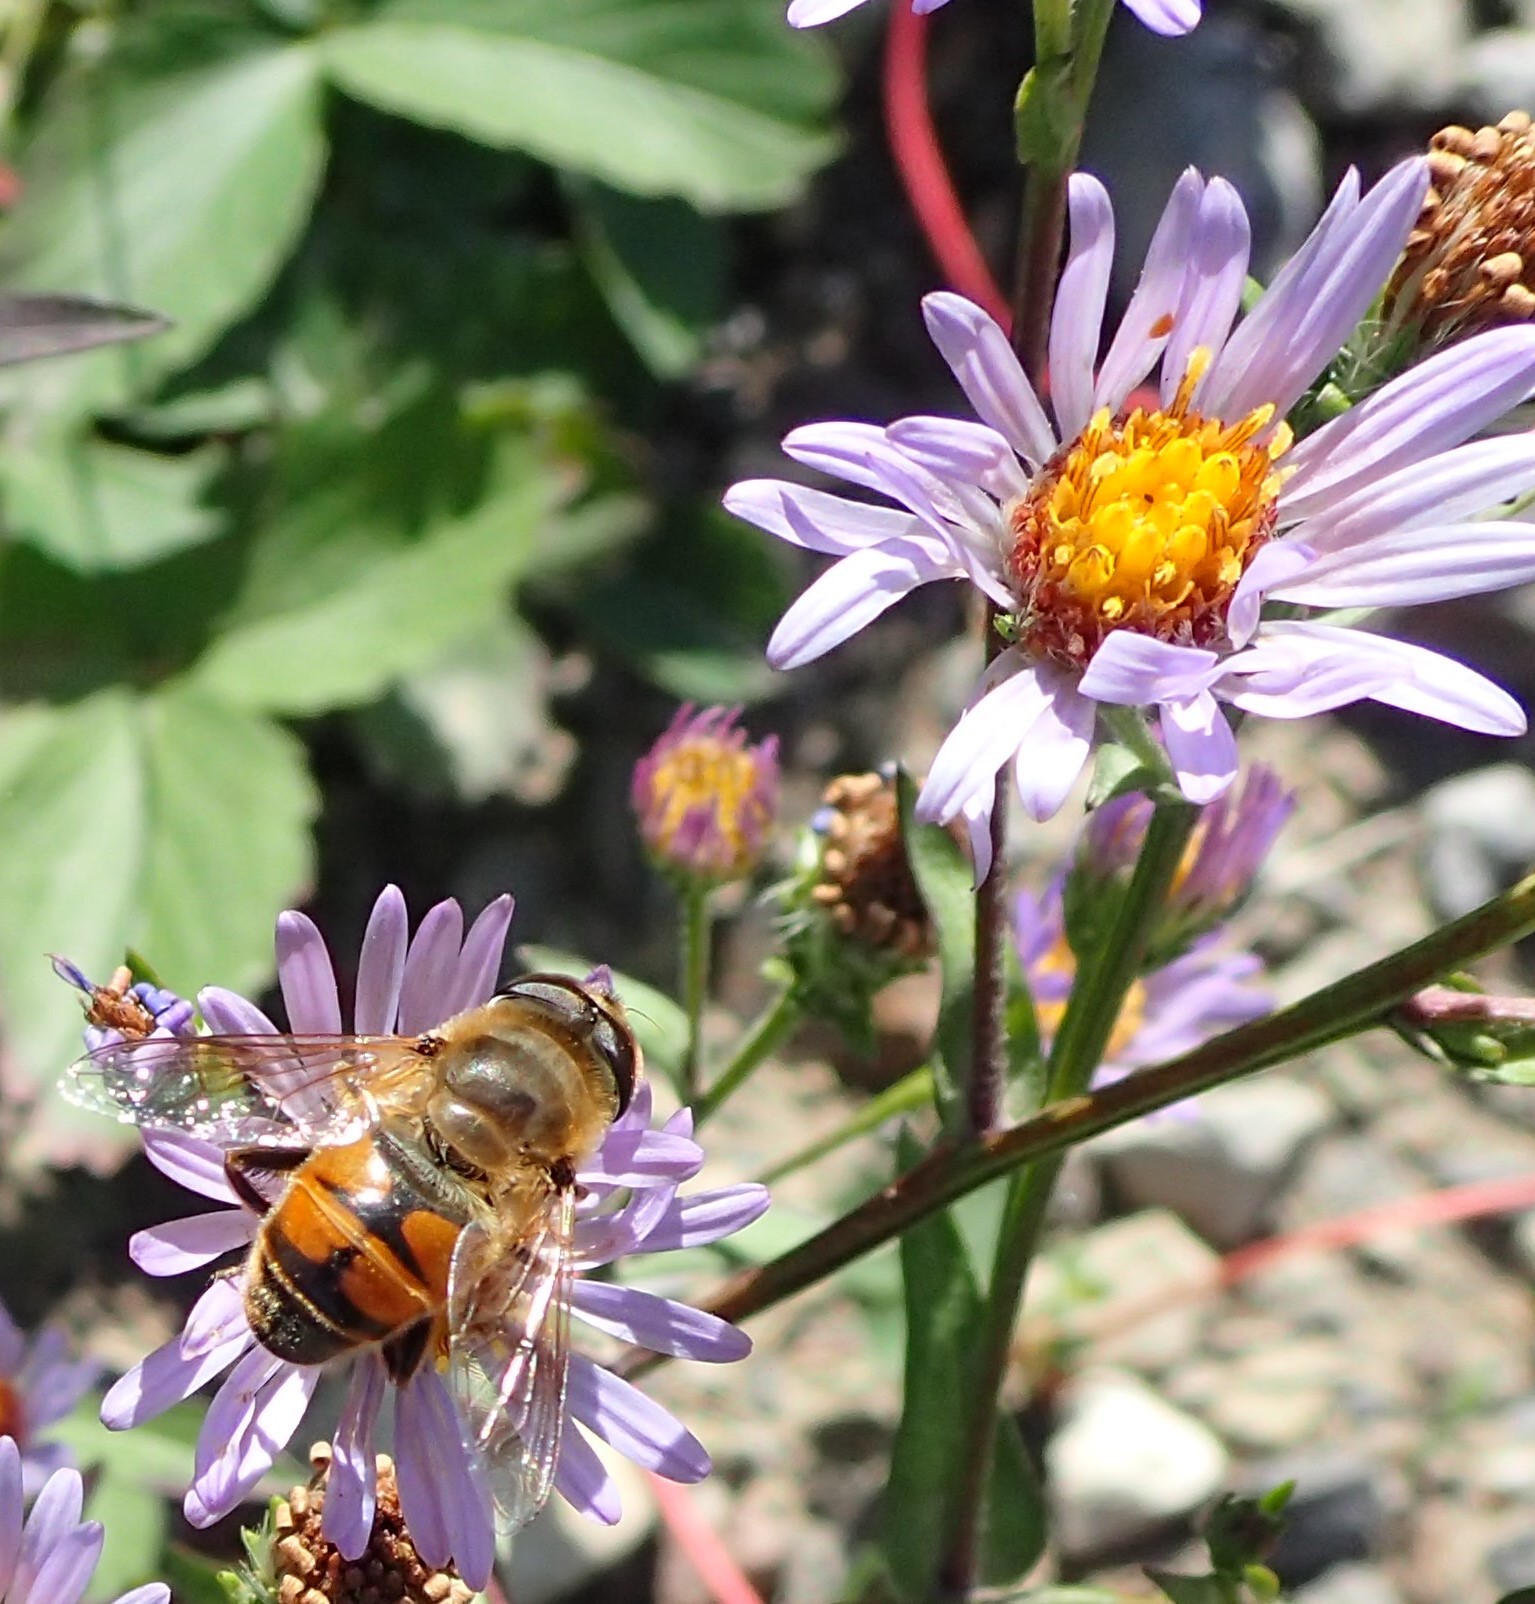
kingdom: Animalia
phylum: Arthropoda
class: Insecta
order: Diptera
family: Syrphidae
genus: Eristalis
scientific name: Eristalis tenax
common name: Drone fly
